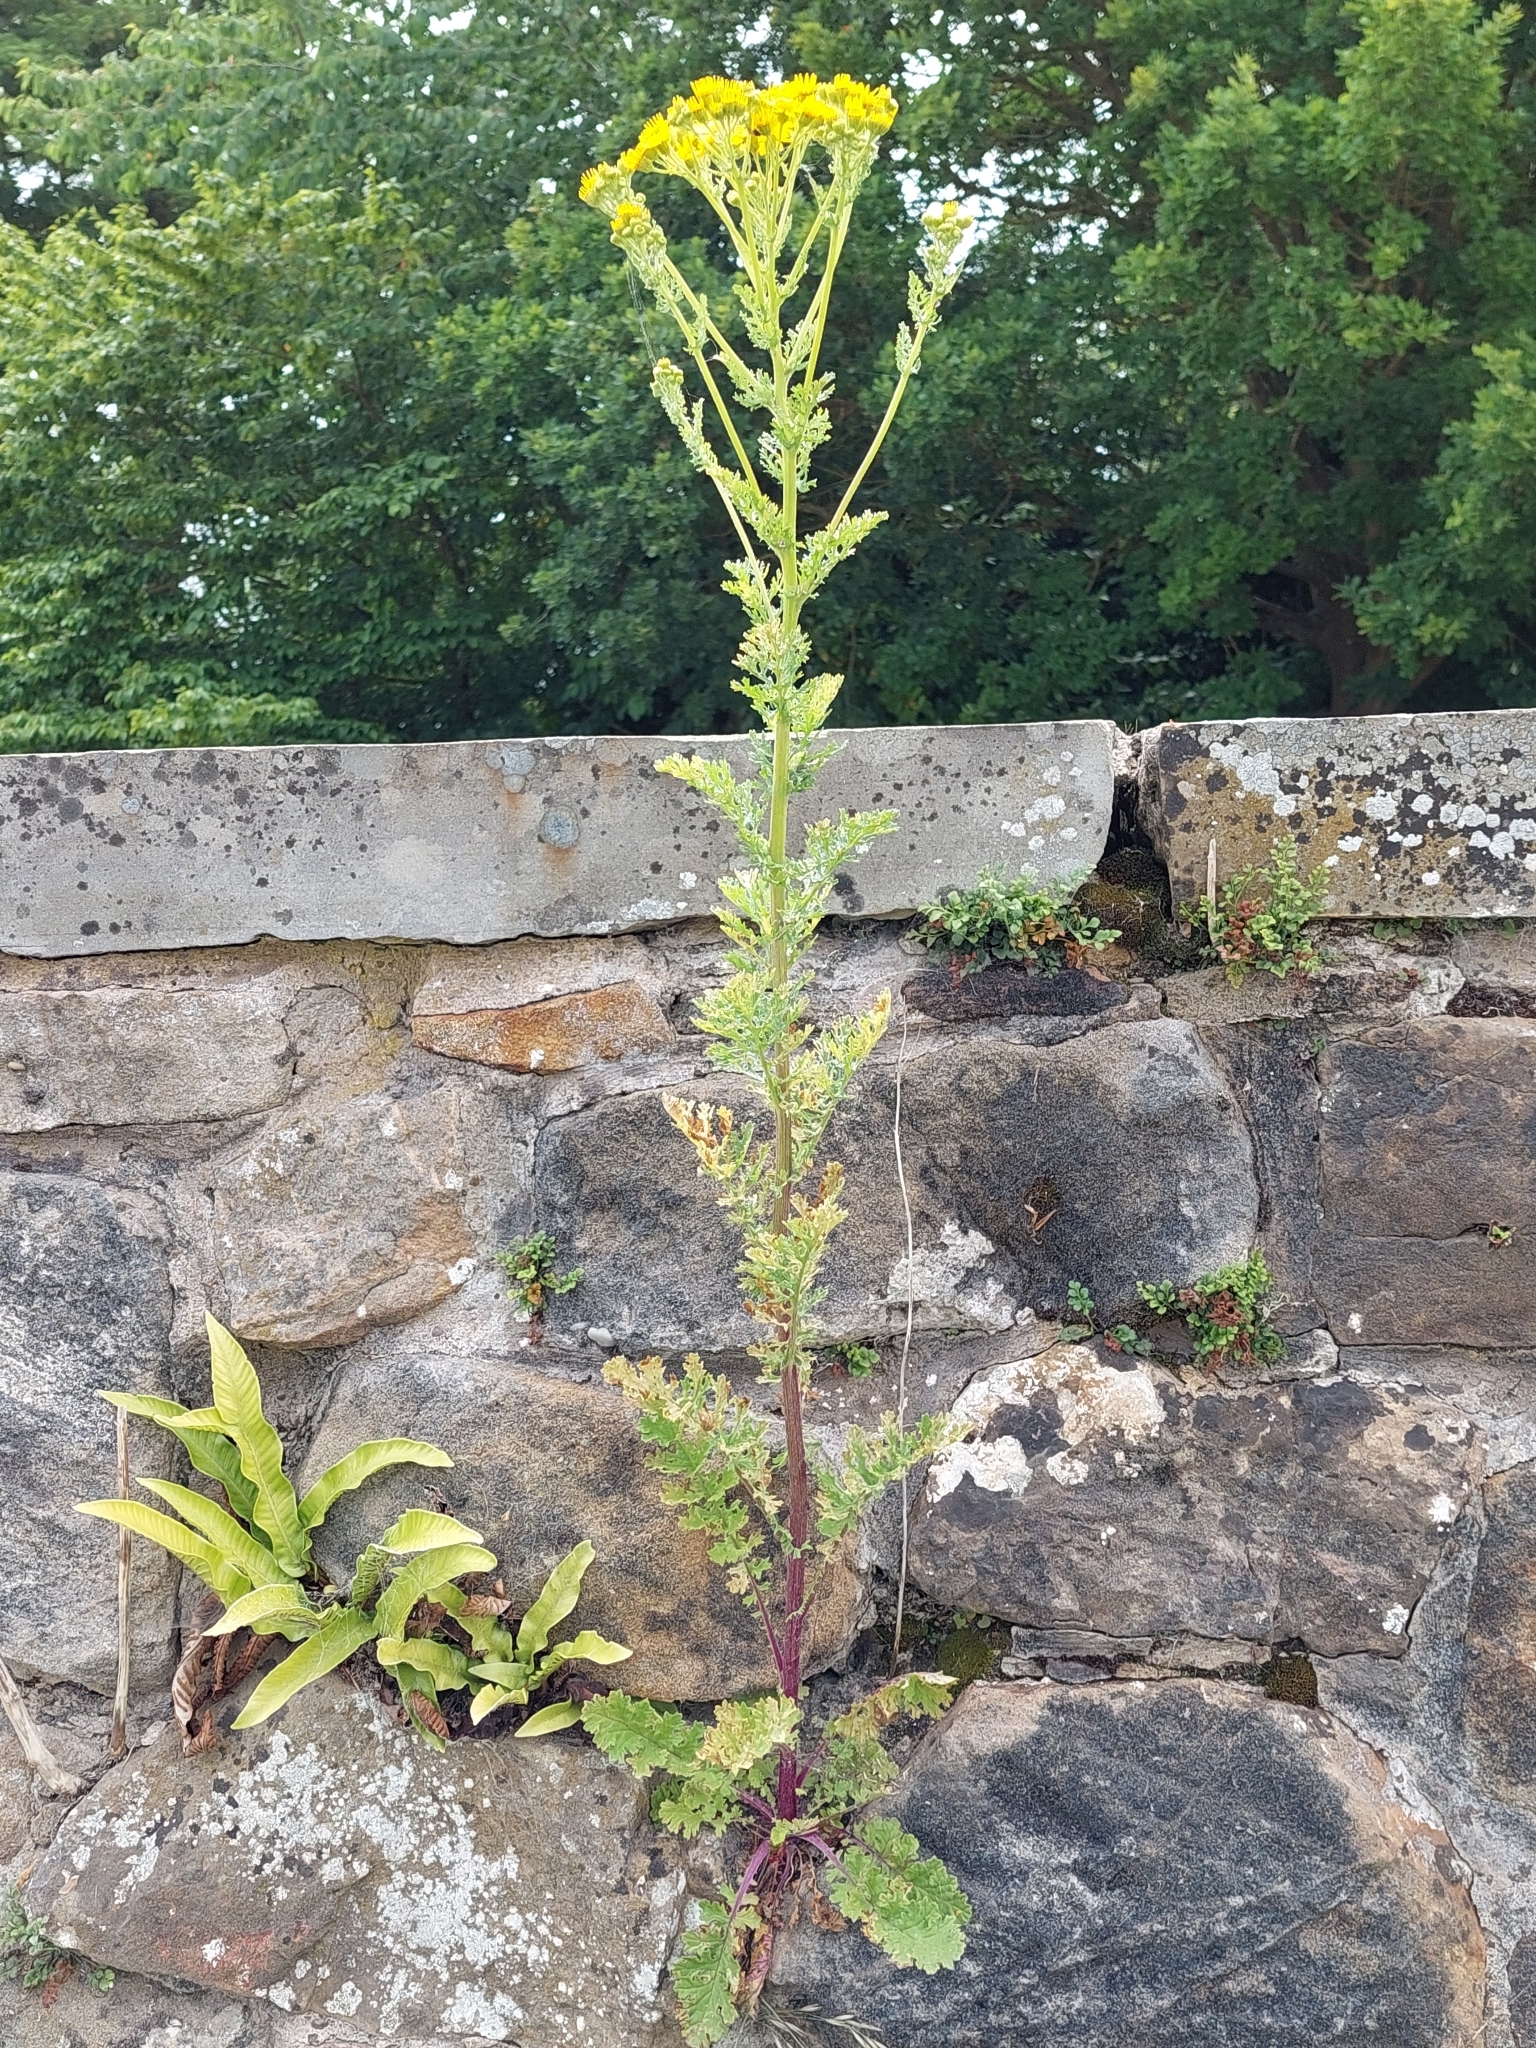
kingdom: Plantae
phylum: Tracheophyta
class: Magnoliopsida
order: Asterales
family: Asteraceae
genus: Jacobaea
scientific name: Jacobaea vulgaris
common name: Stinking willie
